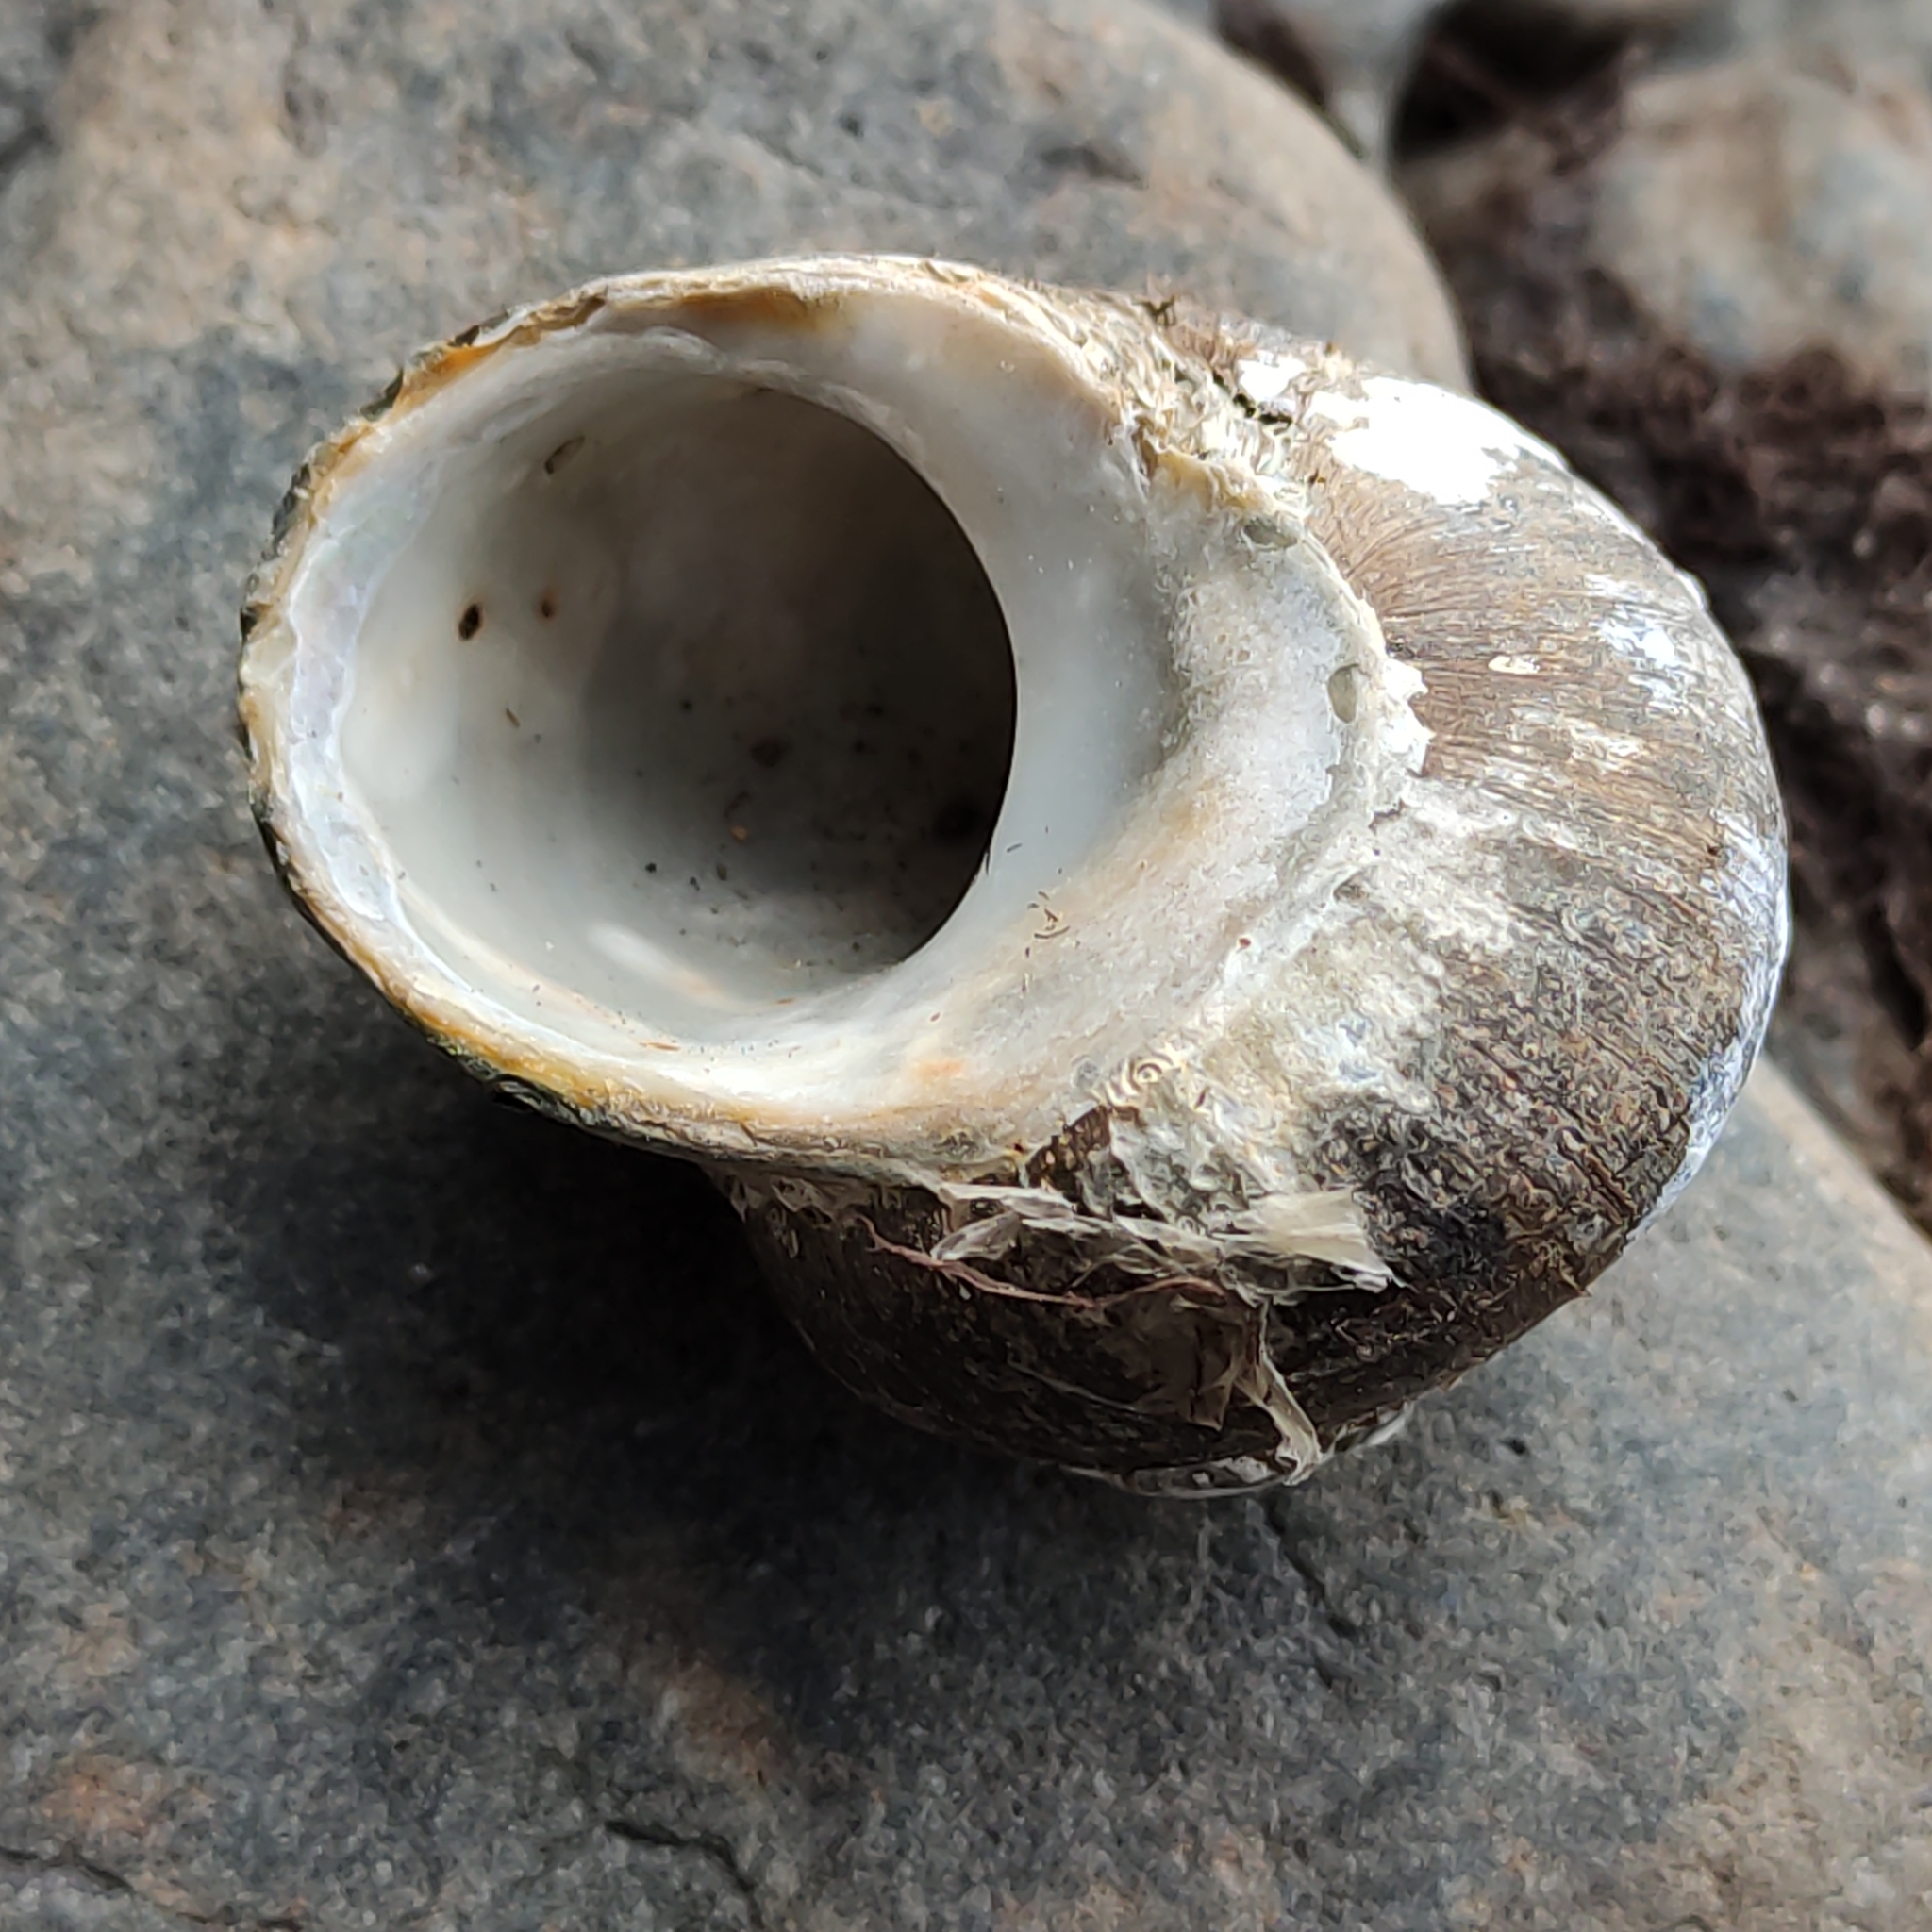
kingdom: Animalia
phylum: Mollusca
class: Gastropoda
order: Trochida
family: Turbinidae
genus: Lunella
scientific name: Lunella smaragda
